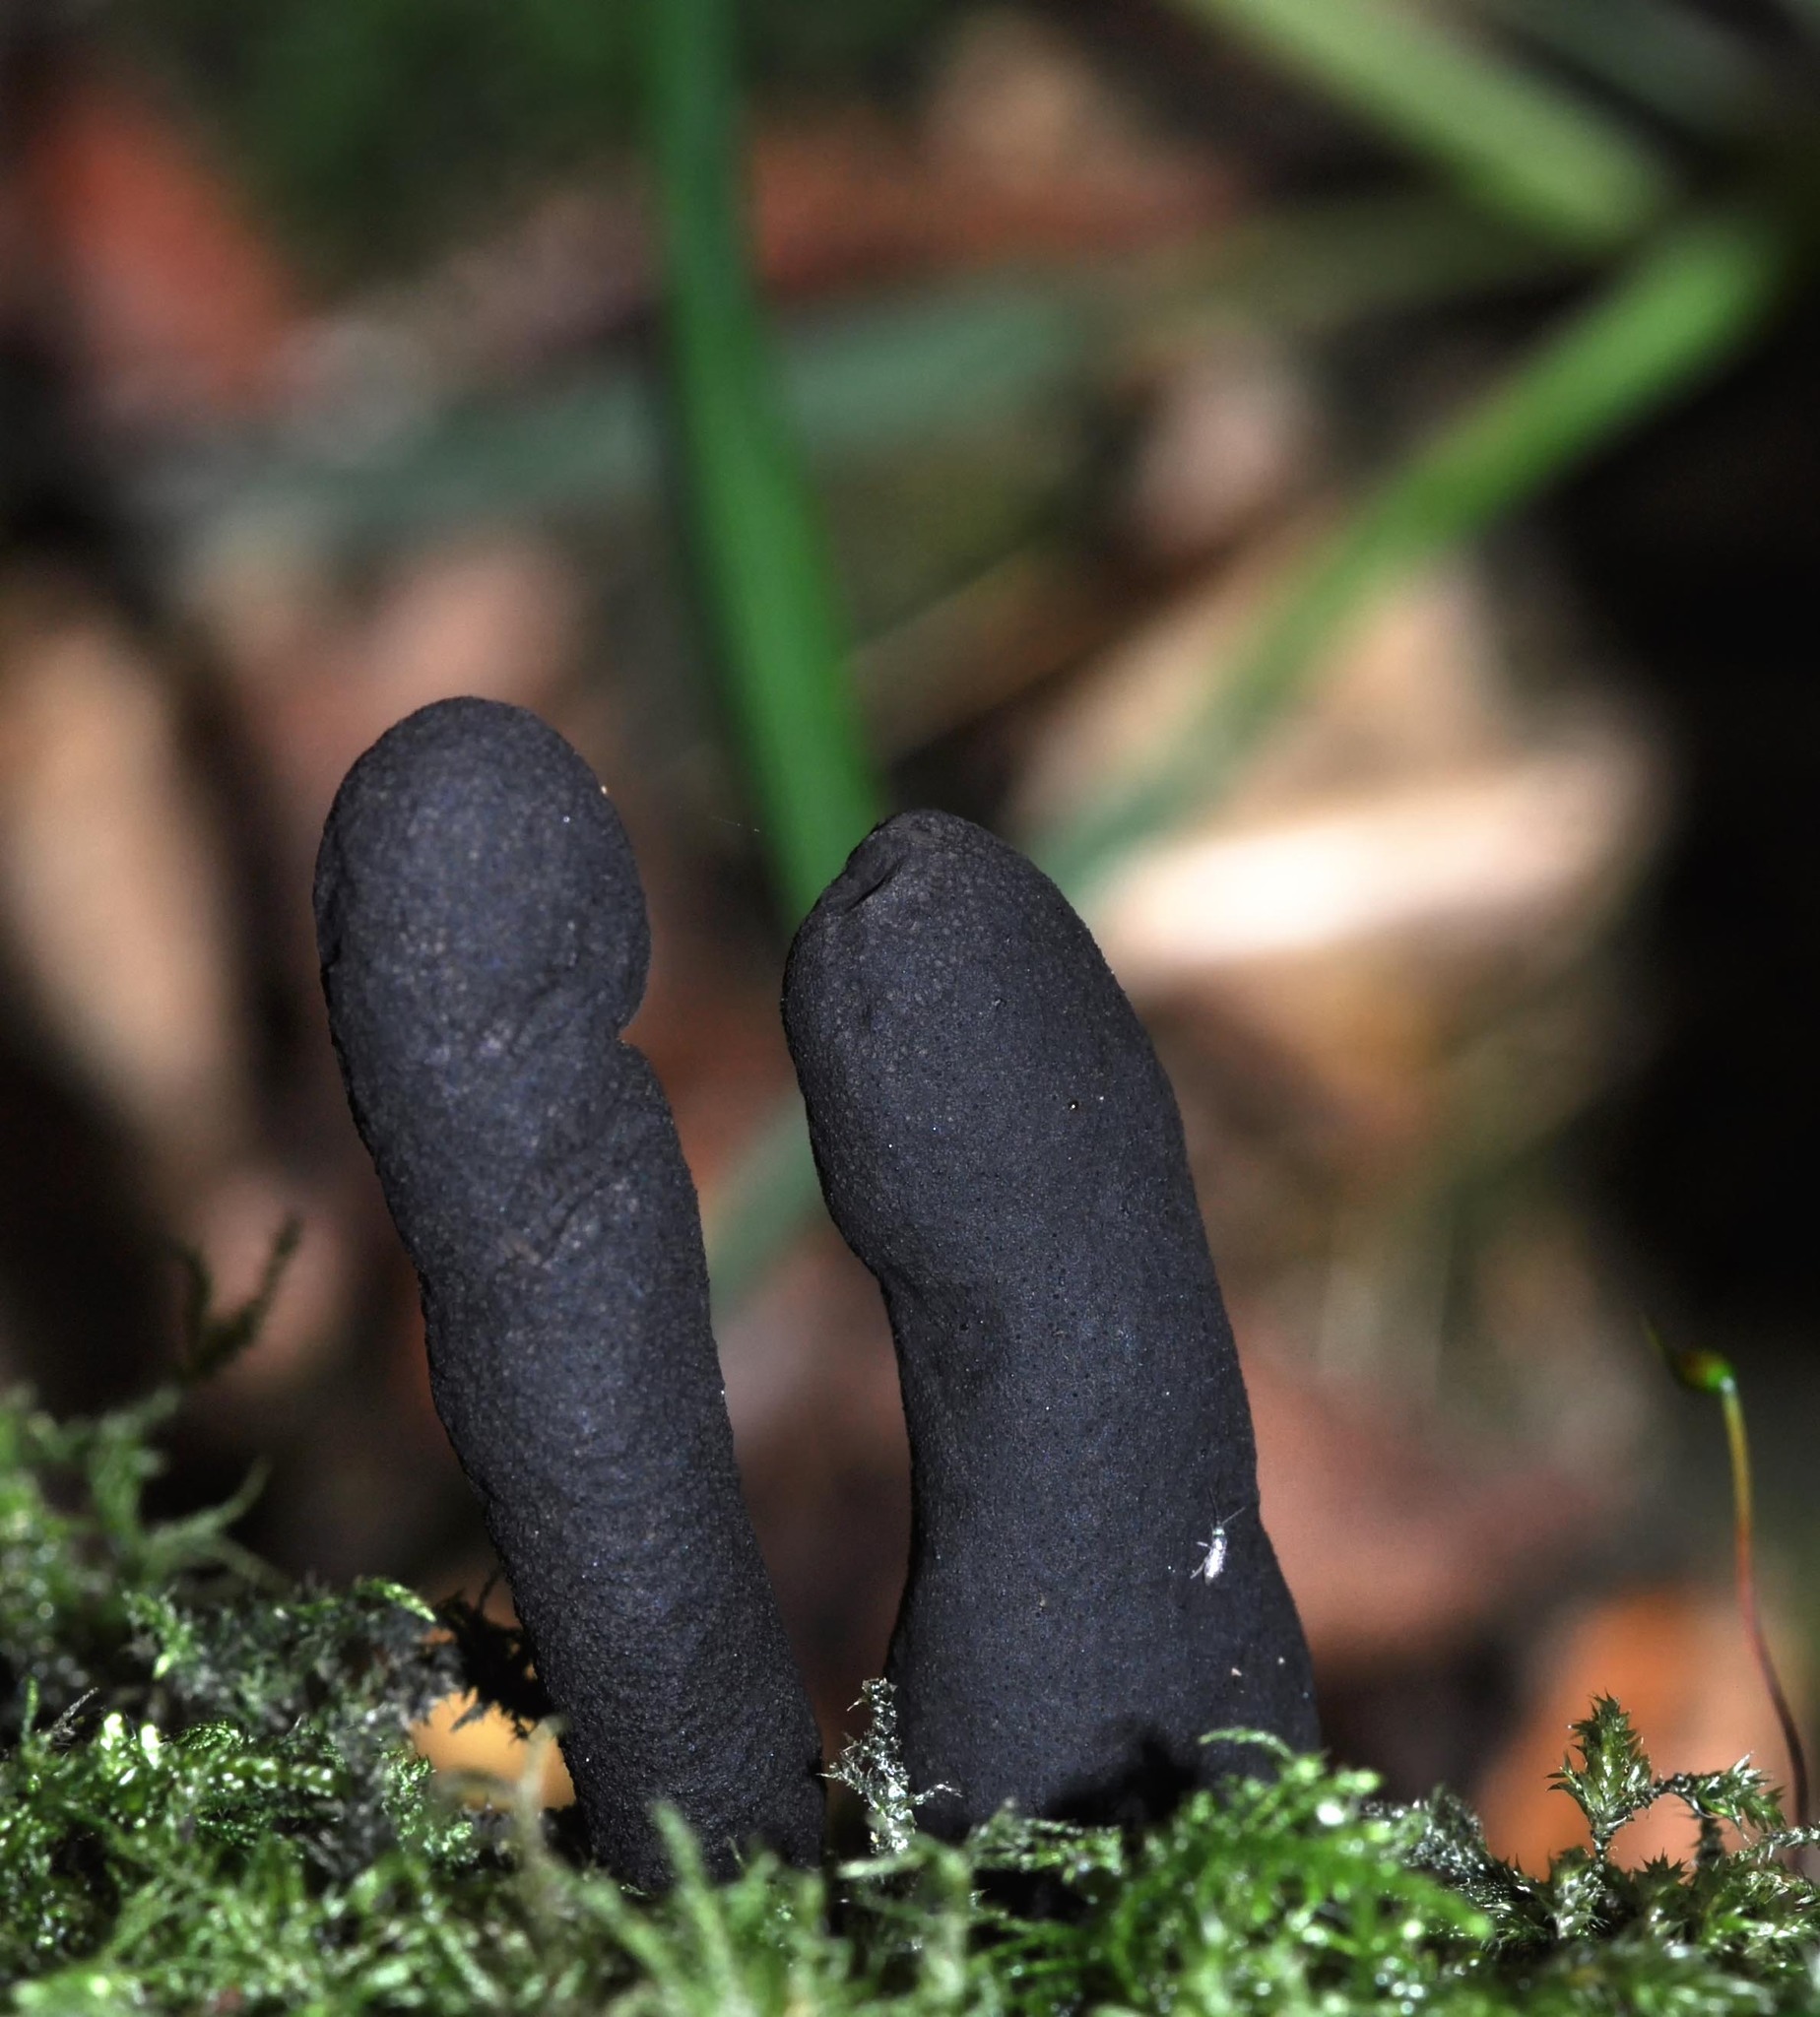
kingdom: Fungi
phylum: Ascomycota
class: Sordariomycetes
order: Xylariales
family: Xylariaceae
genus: Xylaria
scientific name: Xylaria polymorpha
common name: Dead man's fingers
